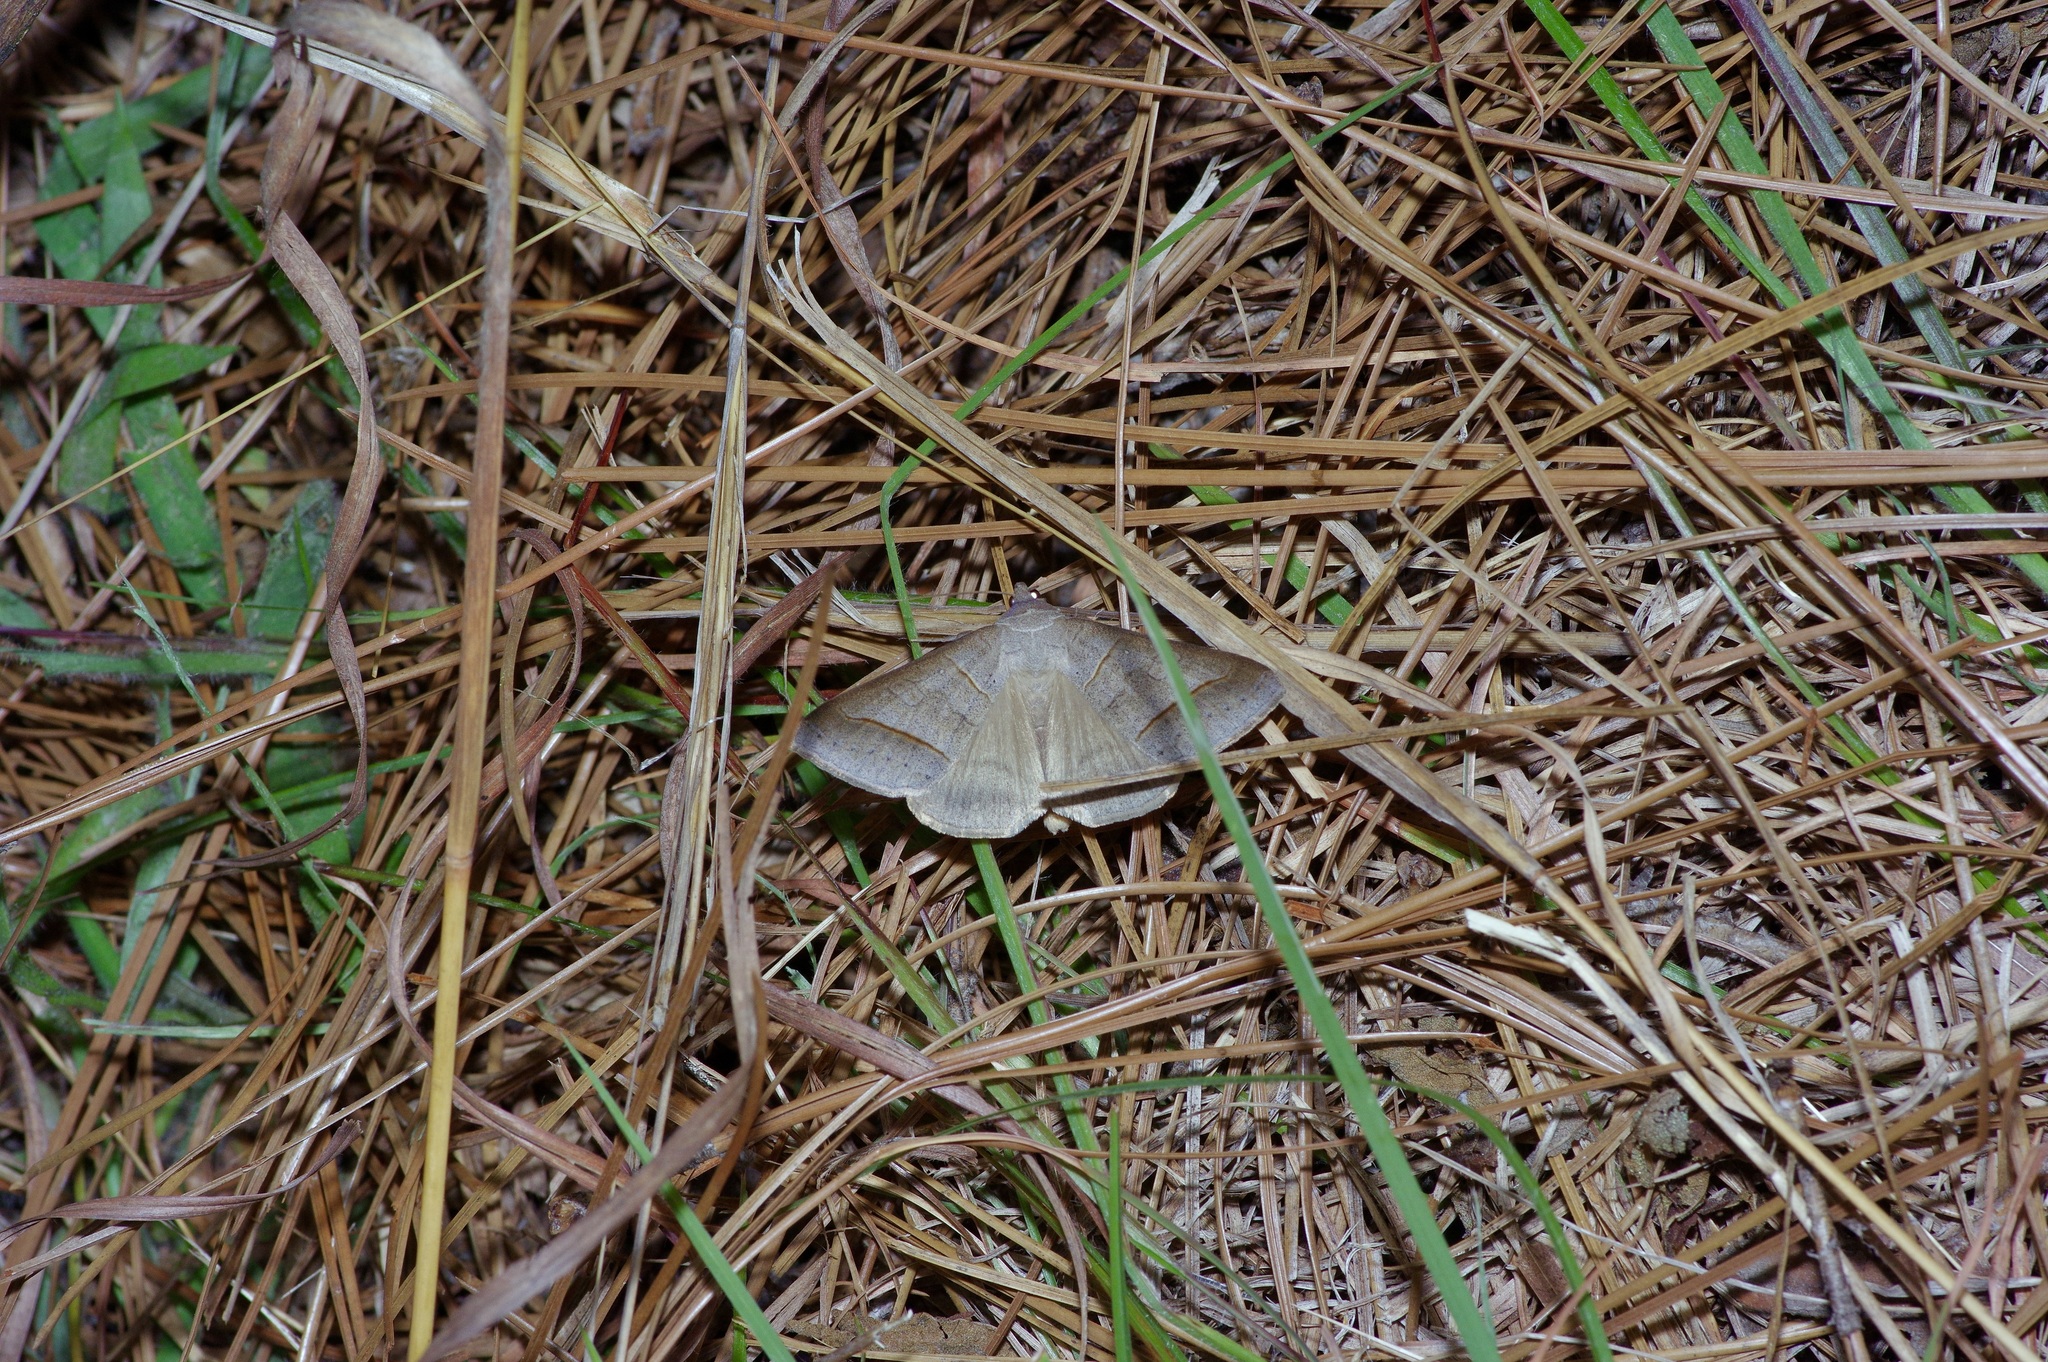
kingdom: Animalia
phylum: Arthropoda
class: Insecta
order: Lepidoptera
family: Erebidae
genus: Mocis
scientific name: Mocis texana
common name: Texas mocis moth
